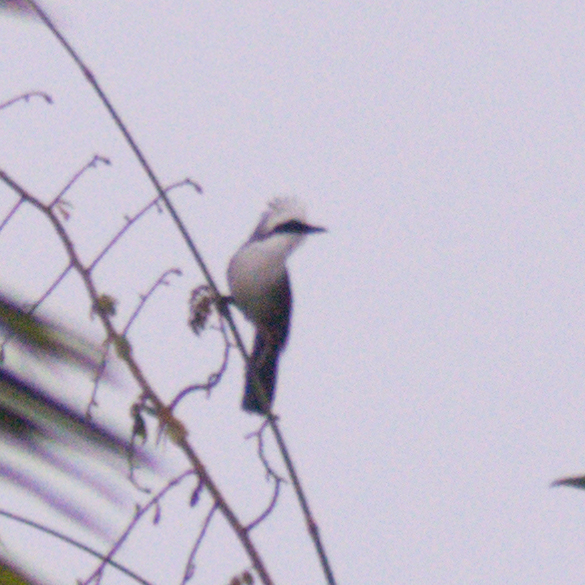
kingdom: Animalia
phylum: Chordata
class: Aves
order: Passeriformes
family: Leiothrichidae
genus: Garrulax
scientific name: Garrulax leucolophus
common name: White-crested laughingthrush
